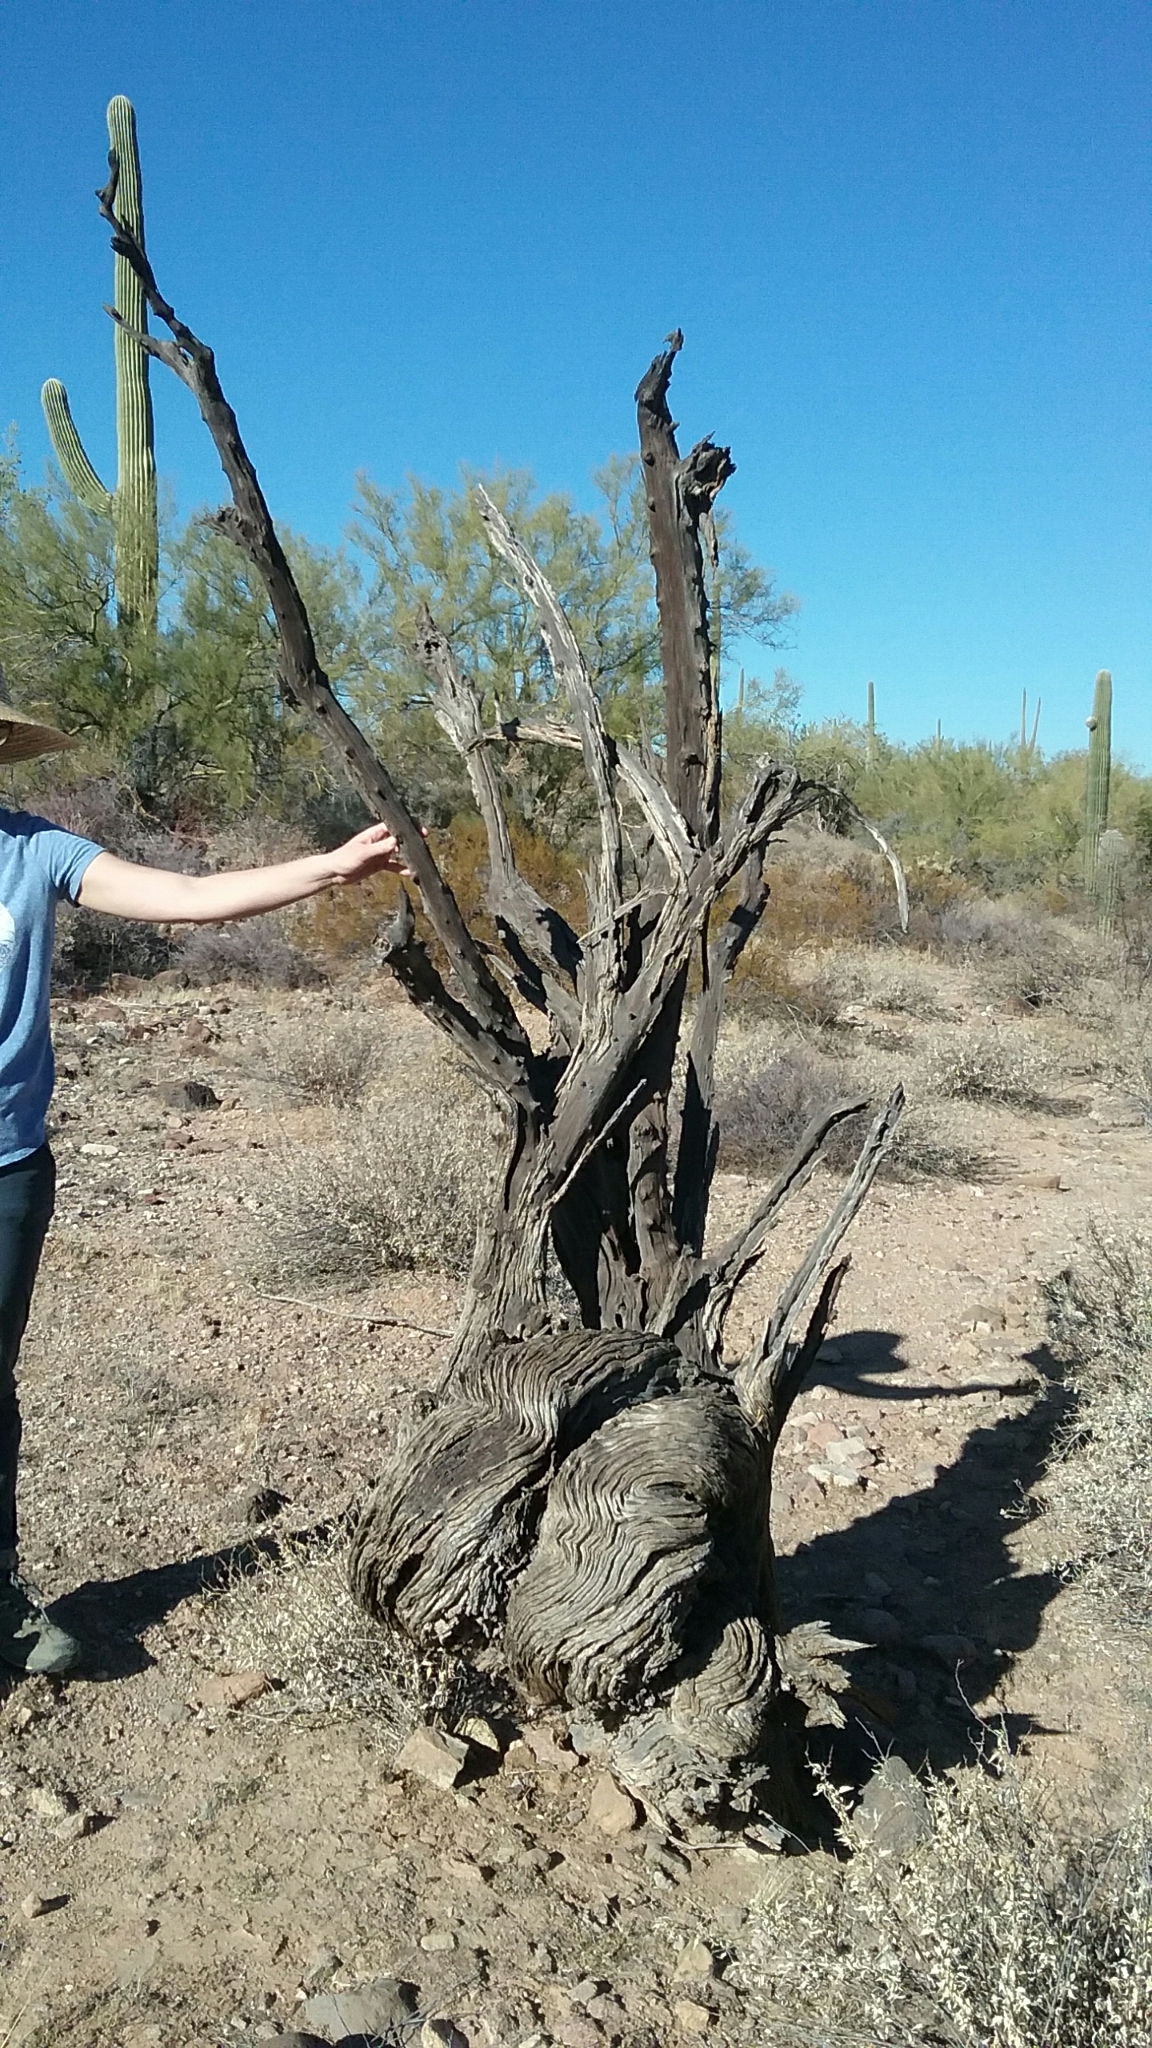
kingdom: Plantae
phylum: Tracheophyta
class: Magnoliopsida
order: Fabales
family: Fabaceae
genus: Olneya
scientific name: Olneya tesota
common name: Desert ironwood
